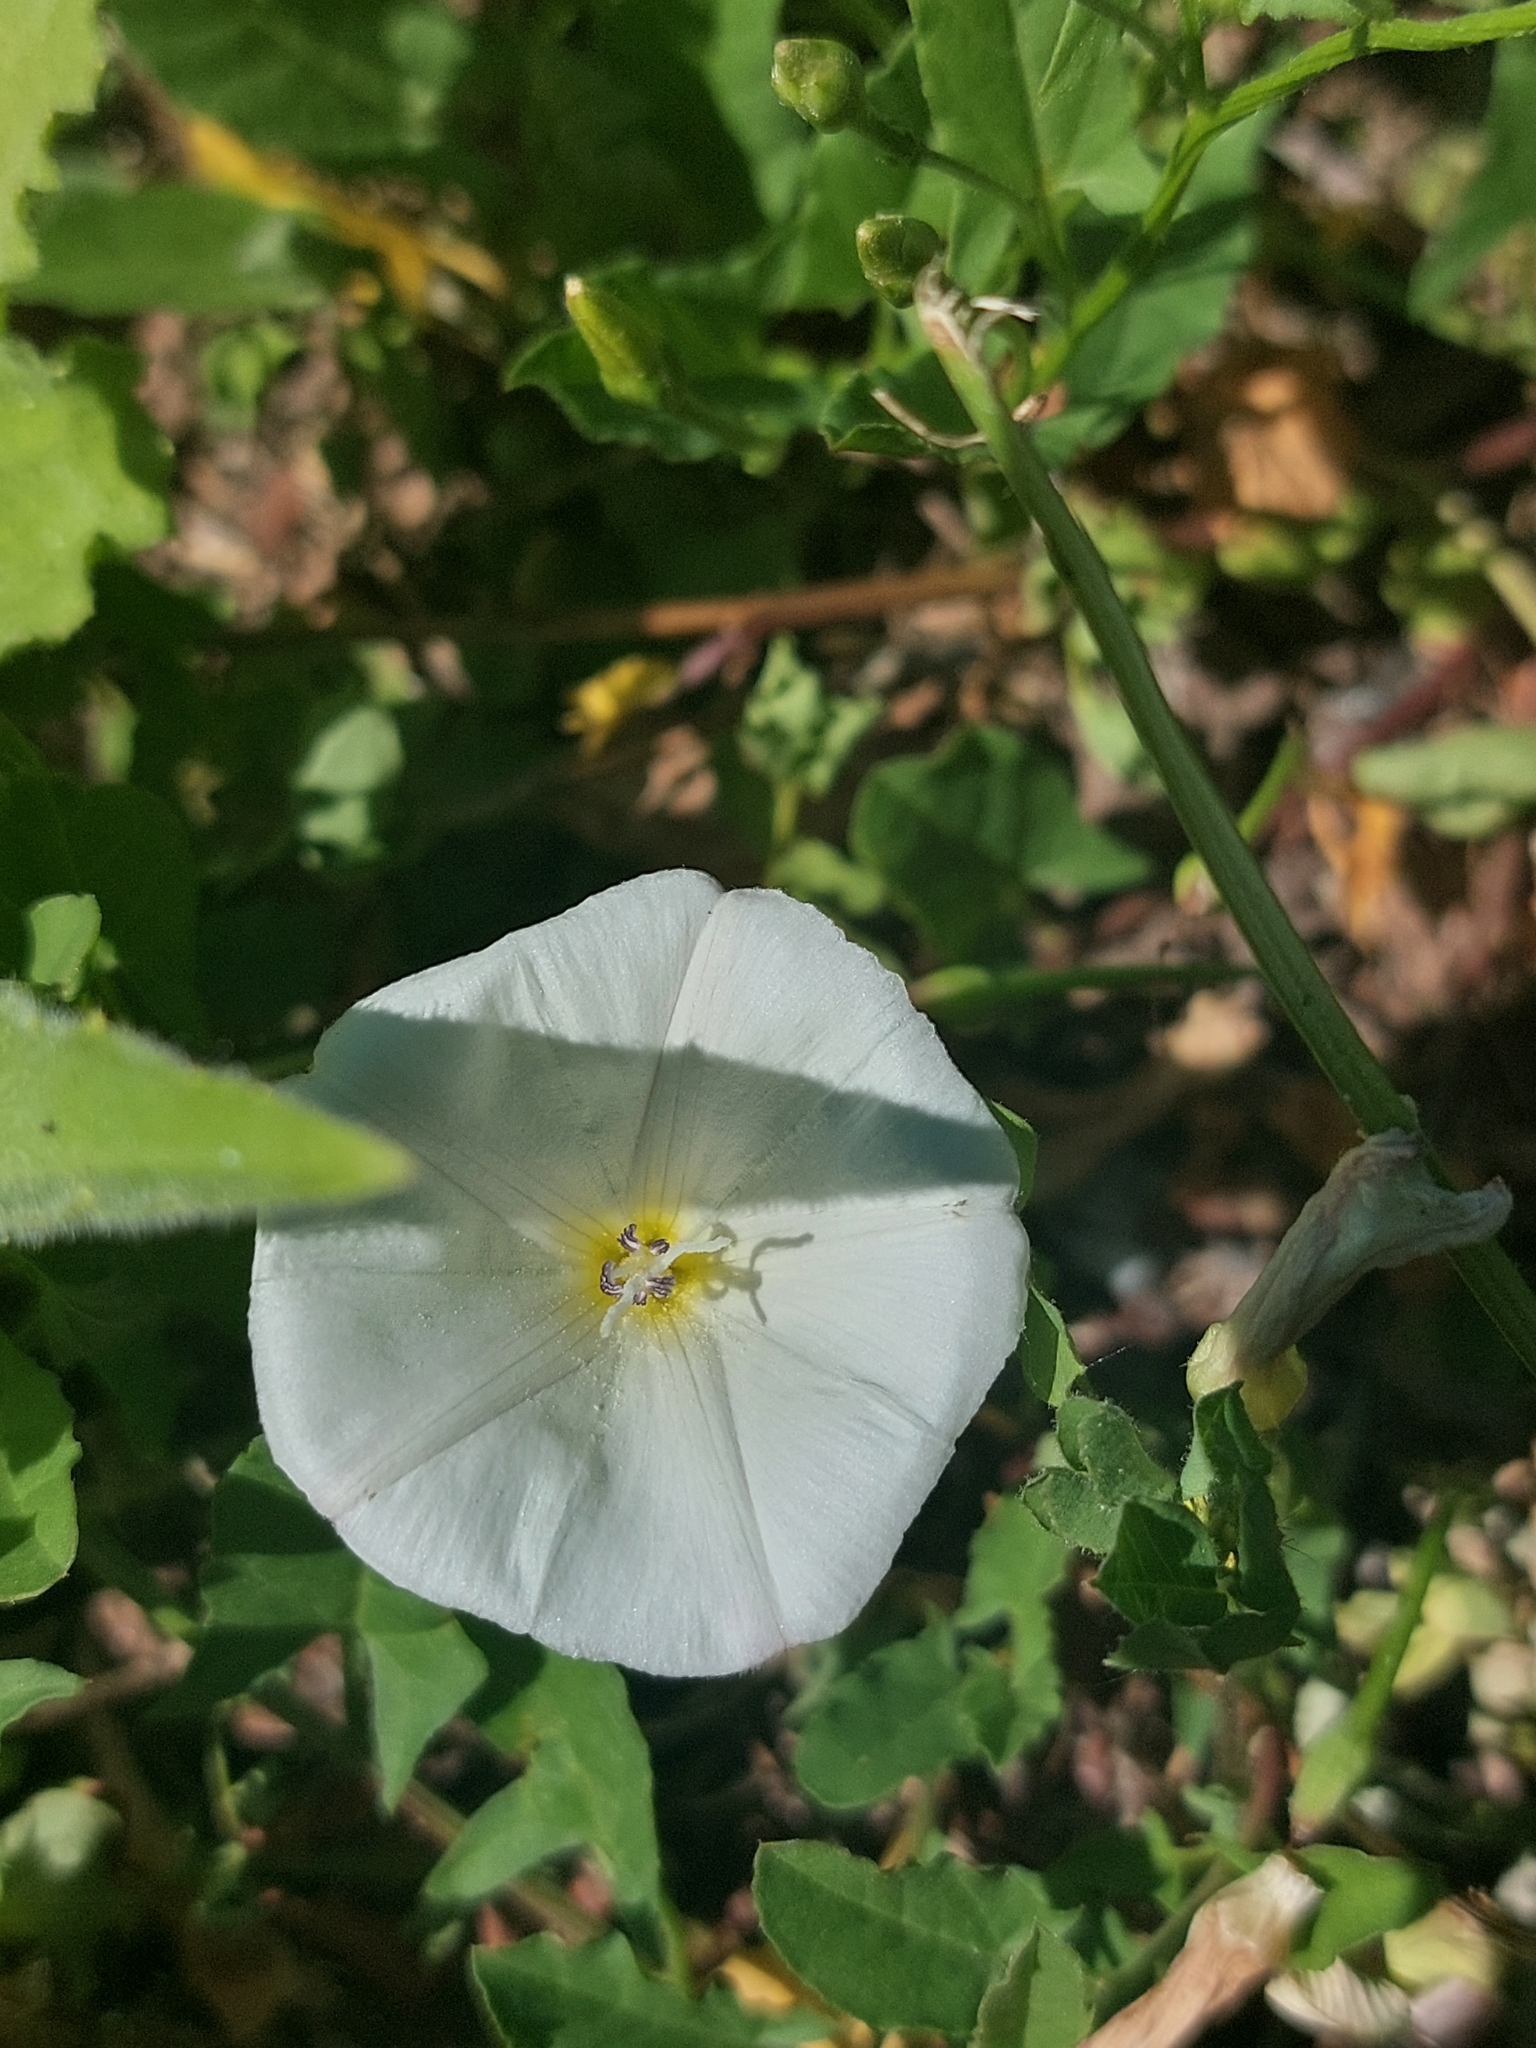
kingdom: Plantae
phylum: Tracheophyta
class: Magnoliopsida
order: Solanales
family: Convolvulaceae
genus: Convolvulus
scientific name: Convolvulus arvensis
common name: Field bindweed
